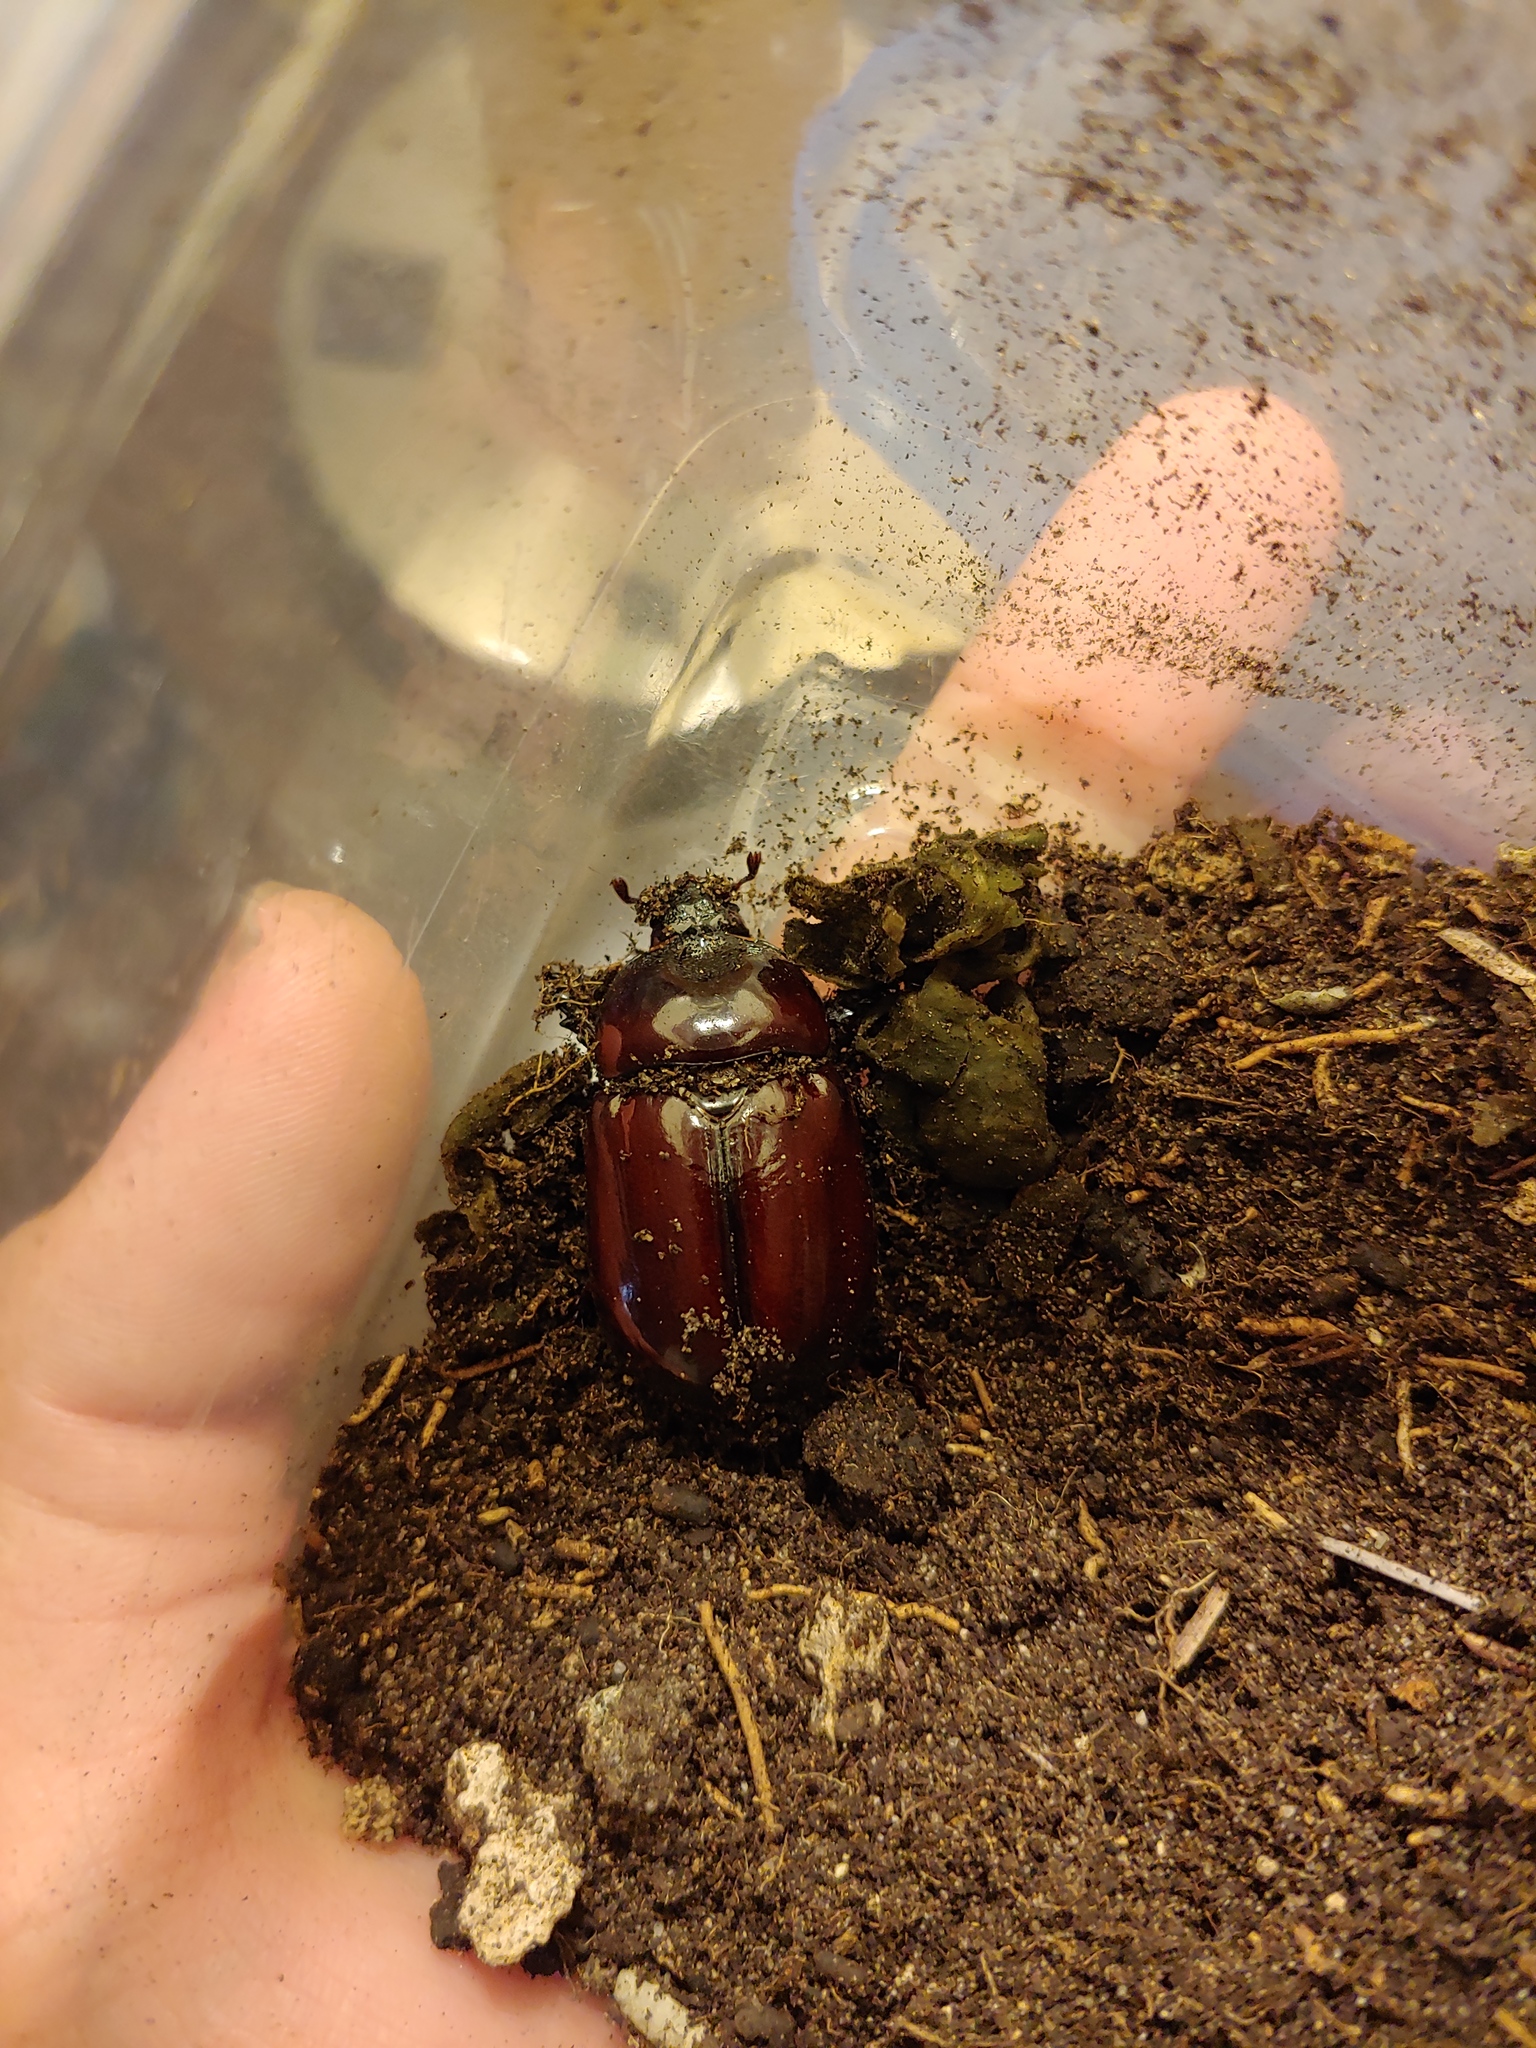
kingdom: Animalia
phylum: Arthropoda
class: Insecta
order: Coleoptera
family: Scarabaeidae
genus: Strategus
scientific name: Strategus splendens
